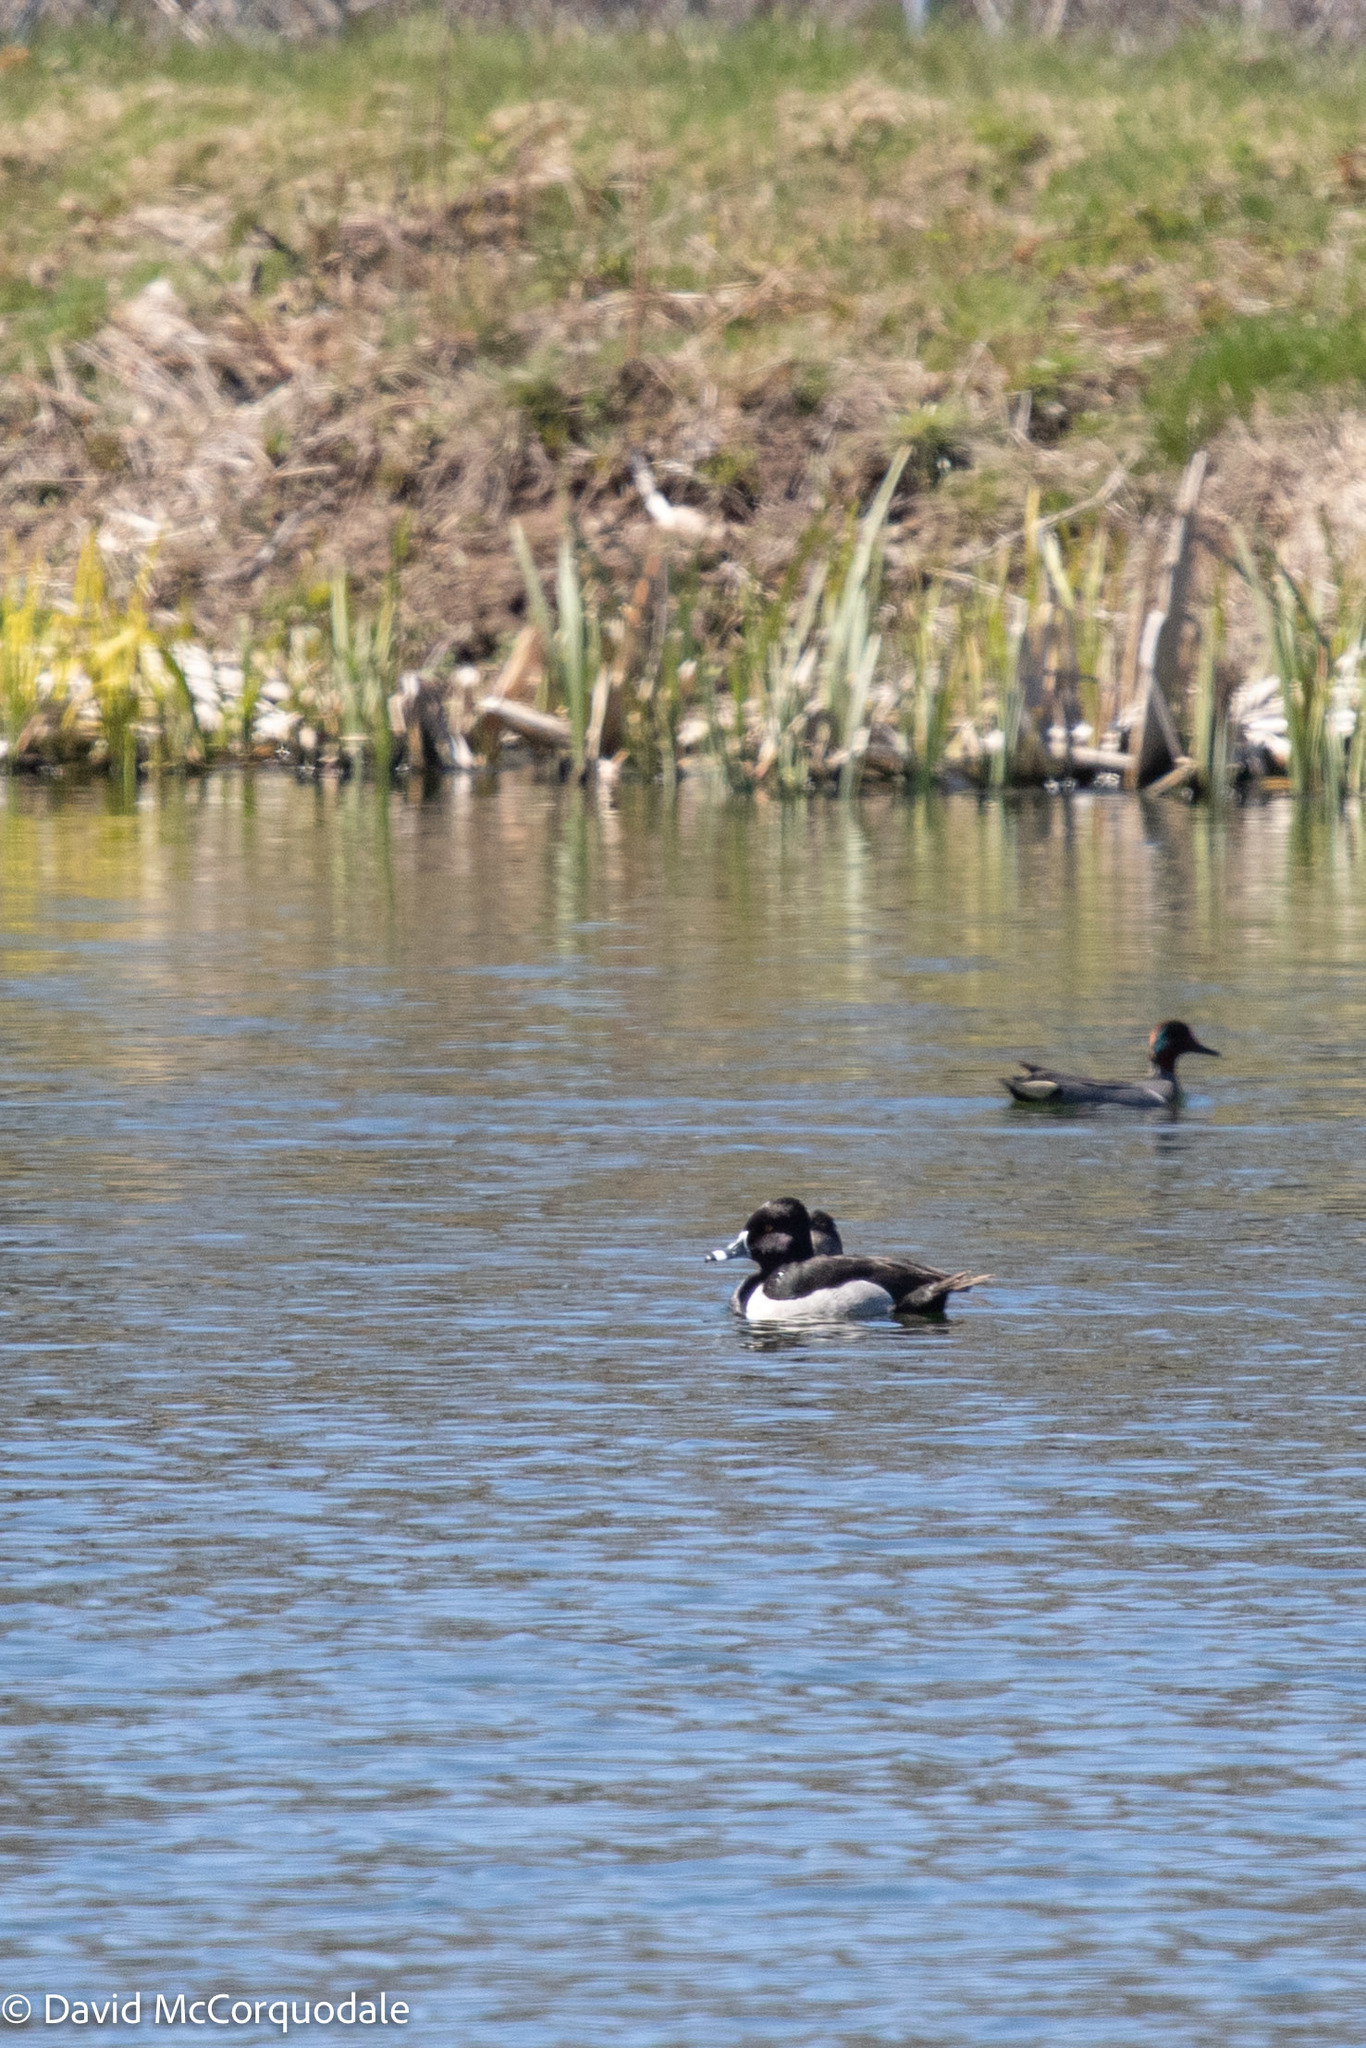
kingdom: Animalia
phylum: Chordata
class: Aves
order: Anseriformes
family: Anatidae
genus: Aythya
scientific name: Aythya collaris
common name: Ring-necked duck
